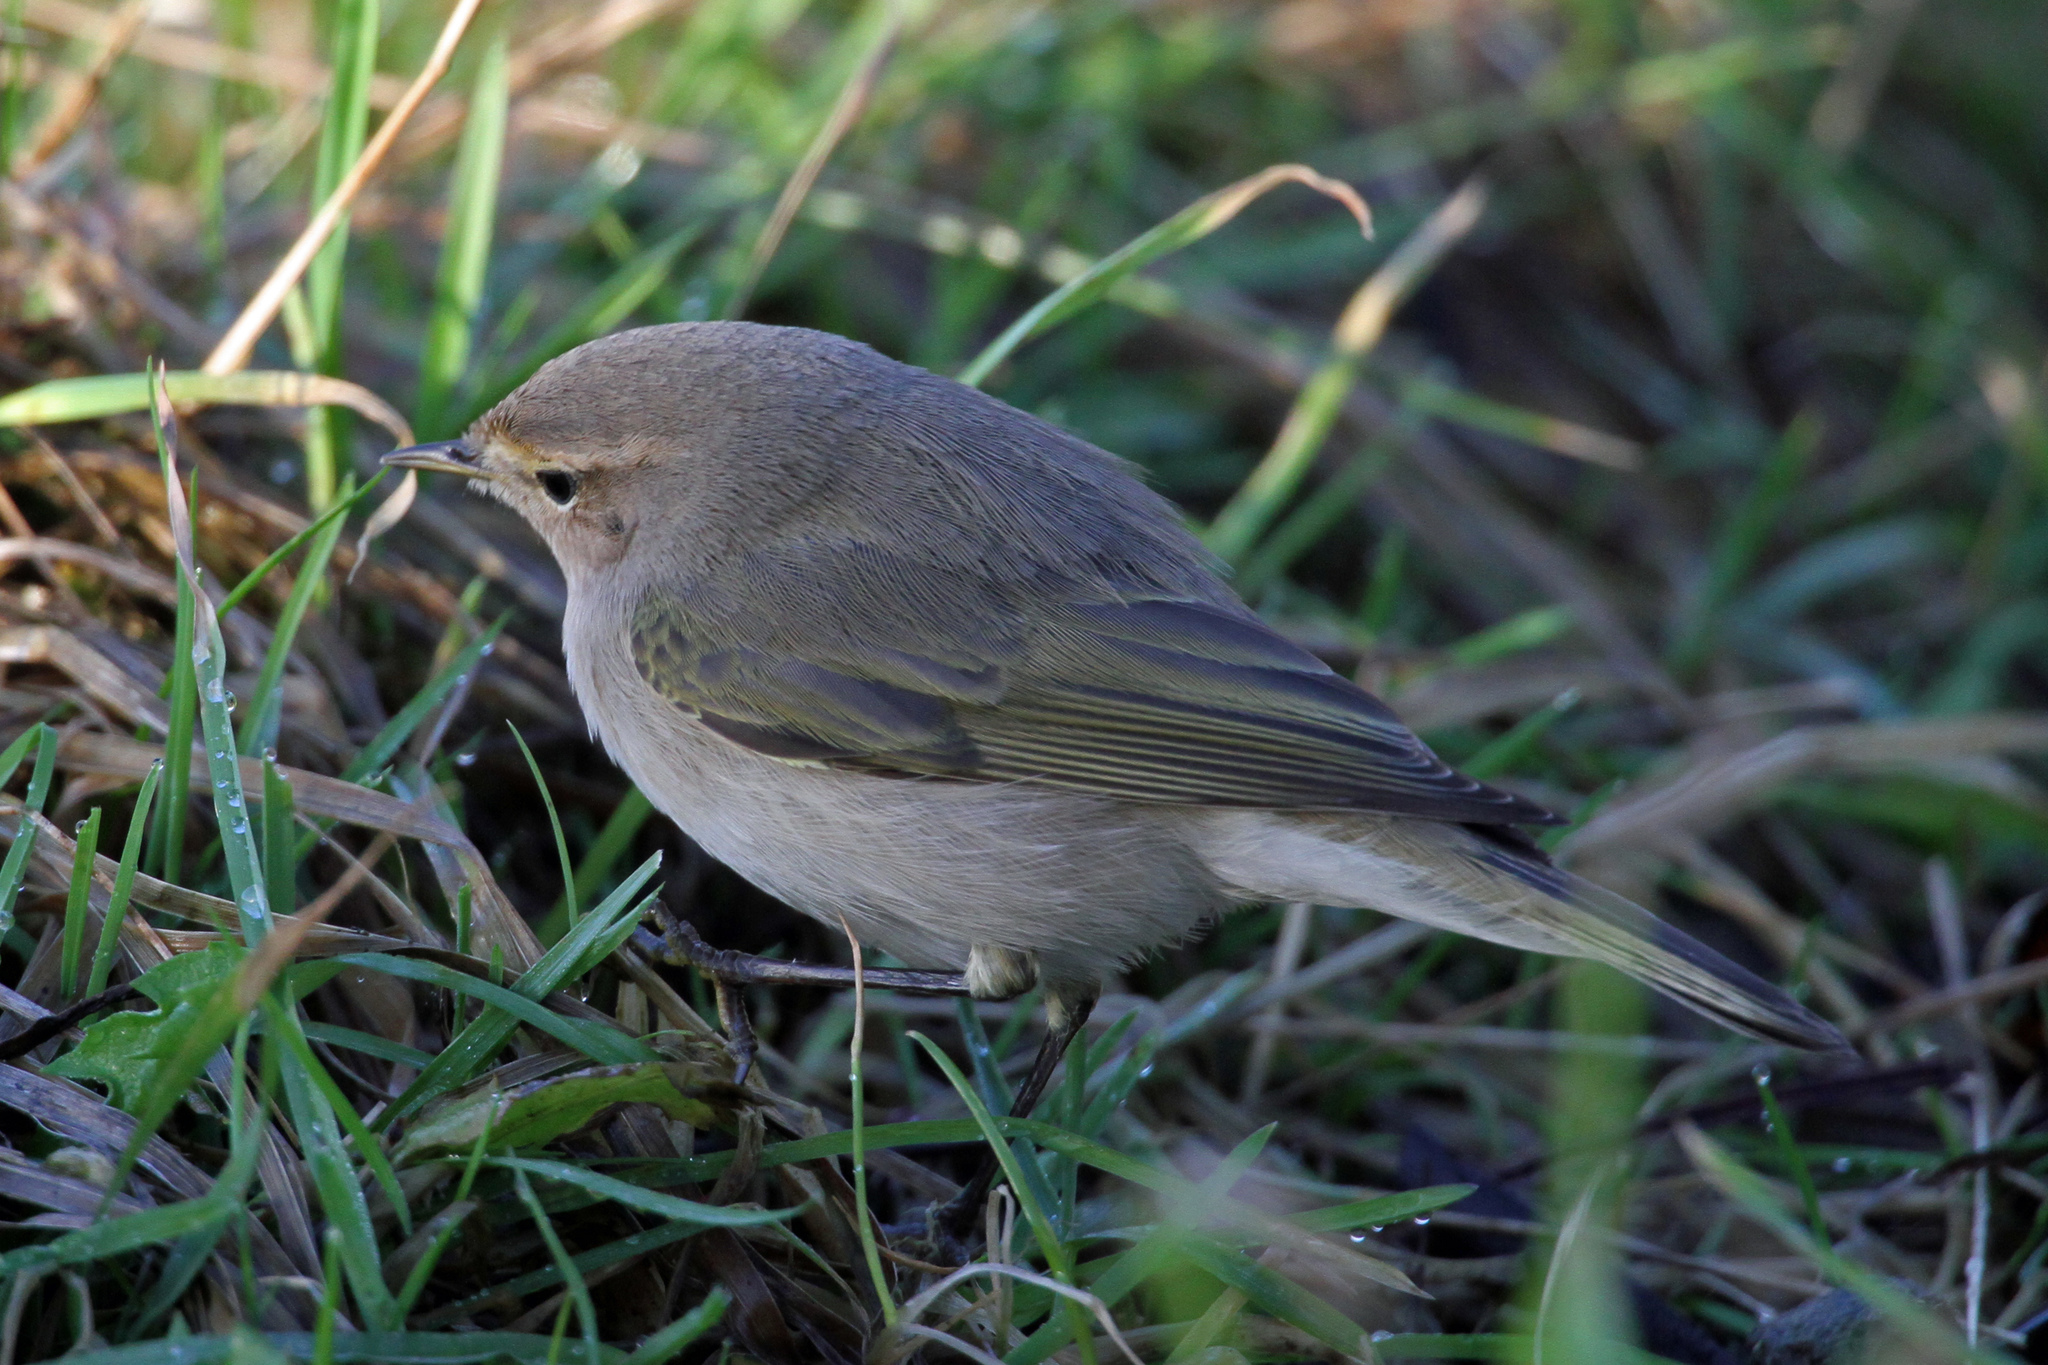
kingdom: Animalia
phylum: Chordata
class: Aves
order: Passeriformes
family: Phylloscopidae
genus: Phylloscopus
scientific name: Phylloscopus collybita
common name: Common chiffchaff
